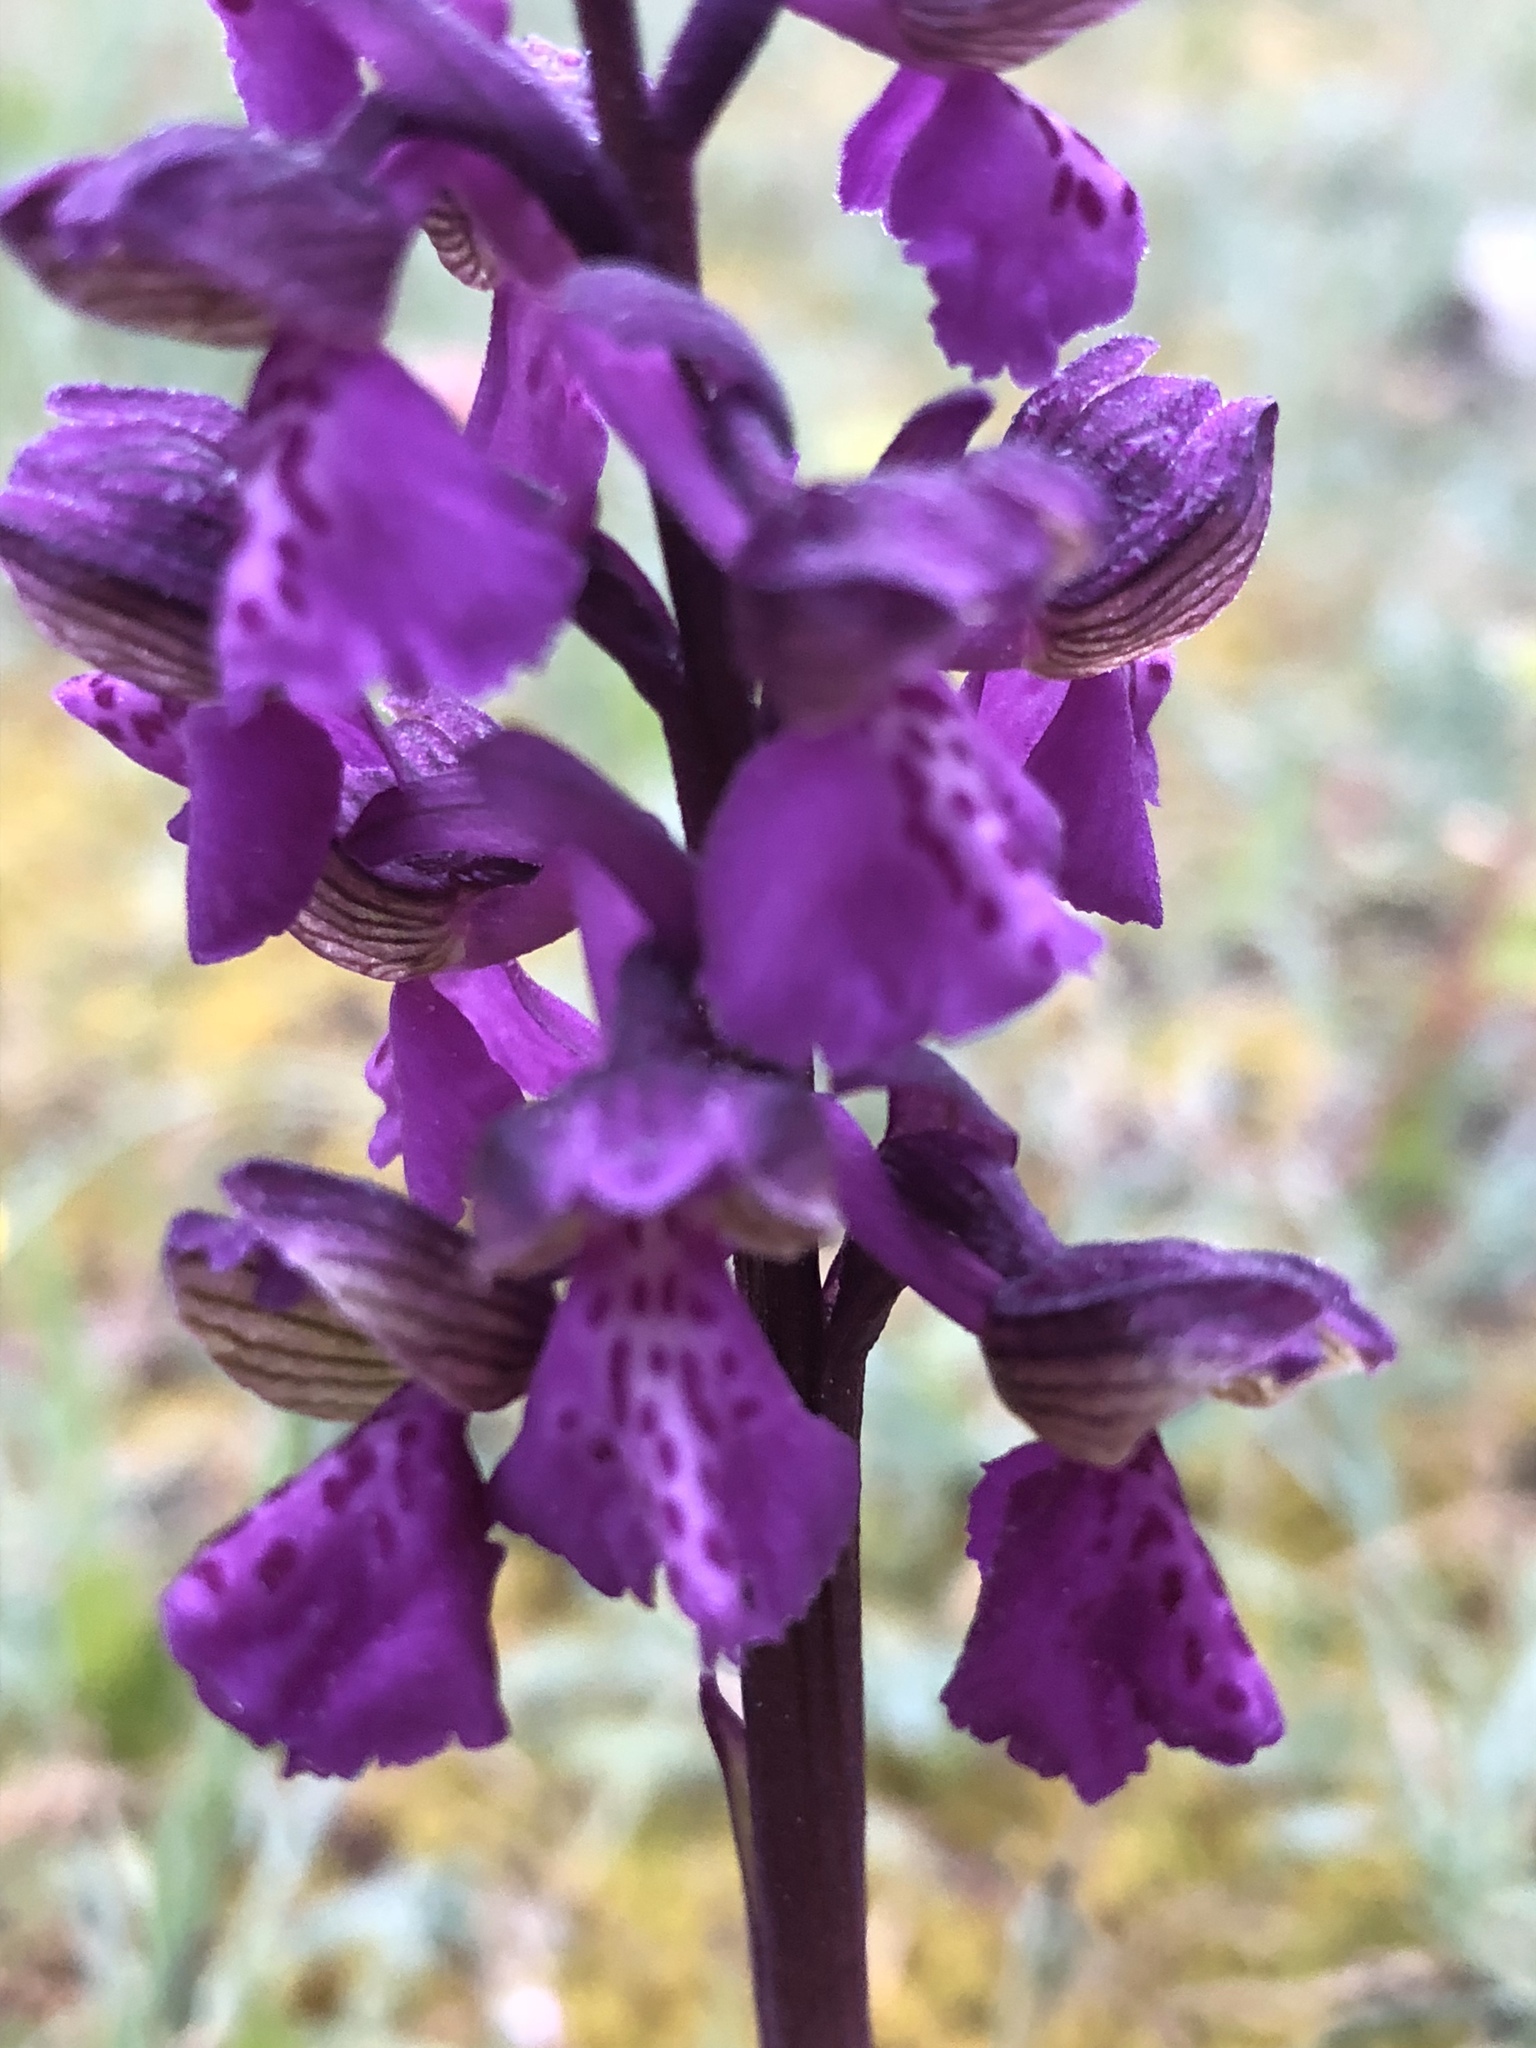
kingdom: Plantae
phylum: Tracheophyta
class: Liliopsida
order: Asparagales
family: Orchidaceae
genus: Anacamptis
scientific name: Anacamptis morio
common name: Green-winged orchid
